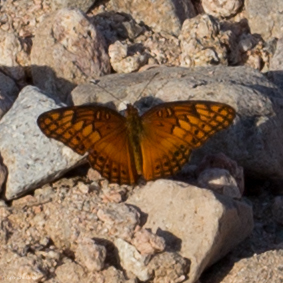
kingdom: Animalia
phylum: Arthropoda
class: Insecta
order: Lepidoptera
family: Nymphalidae
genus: Euptoieta
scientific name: Euptoieta hegesia
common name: Mexican fritillary
